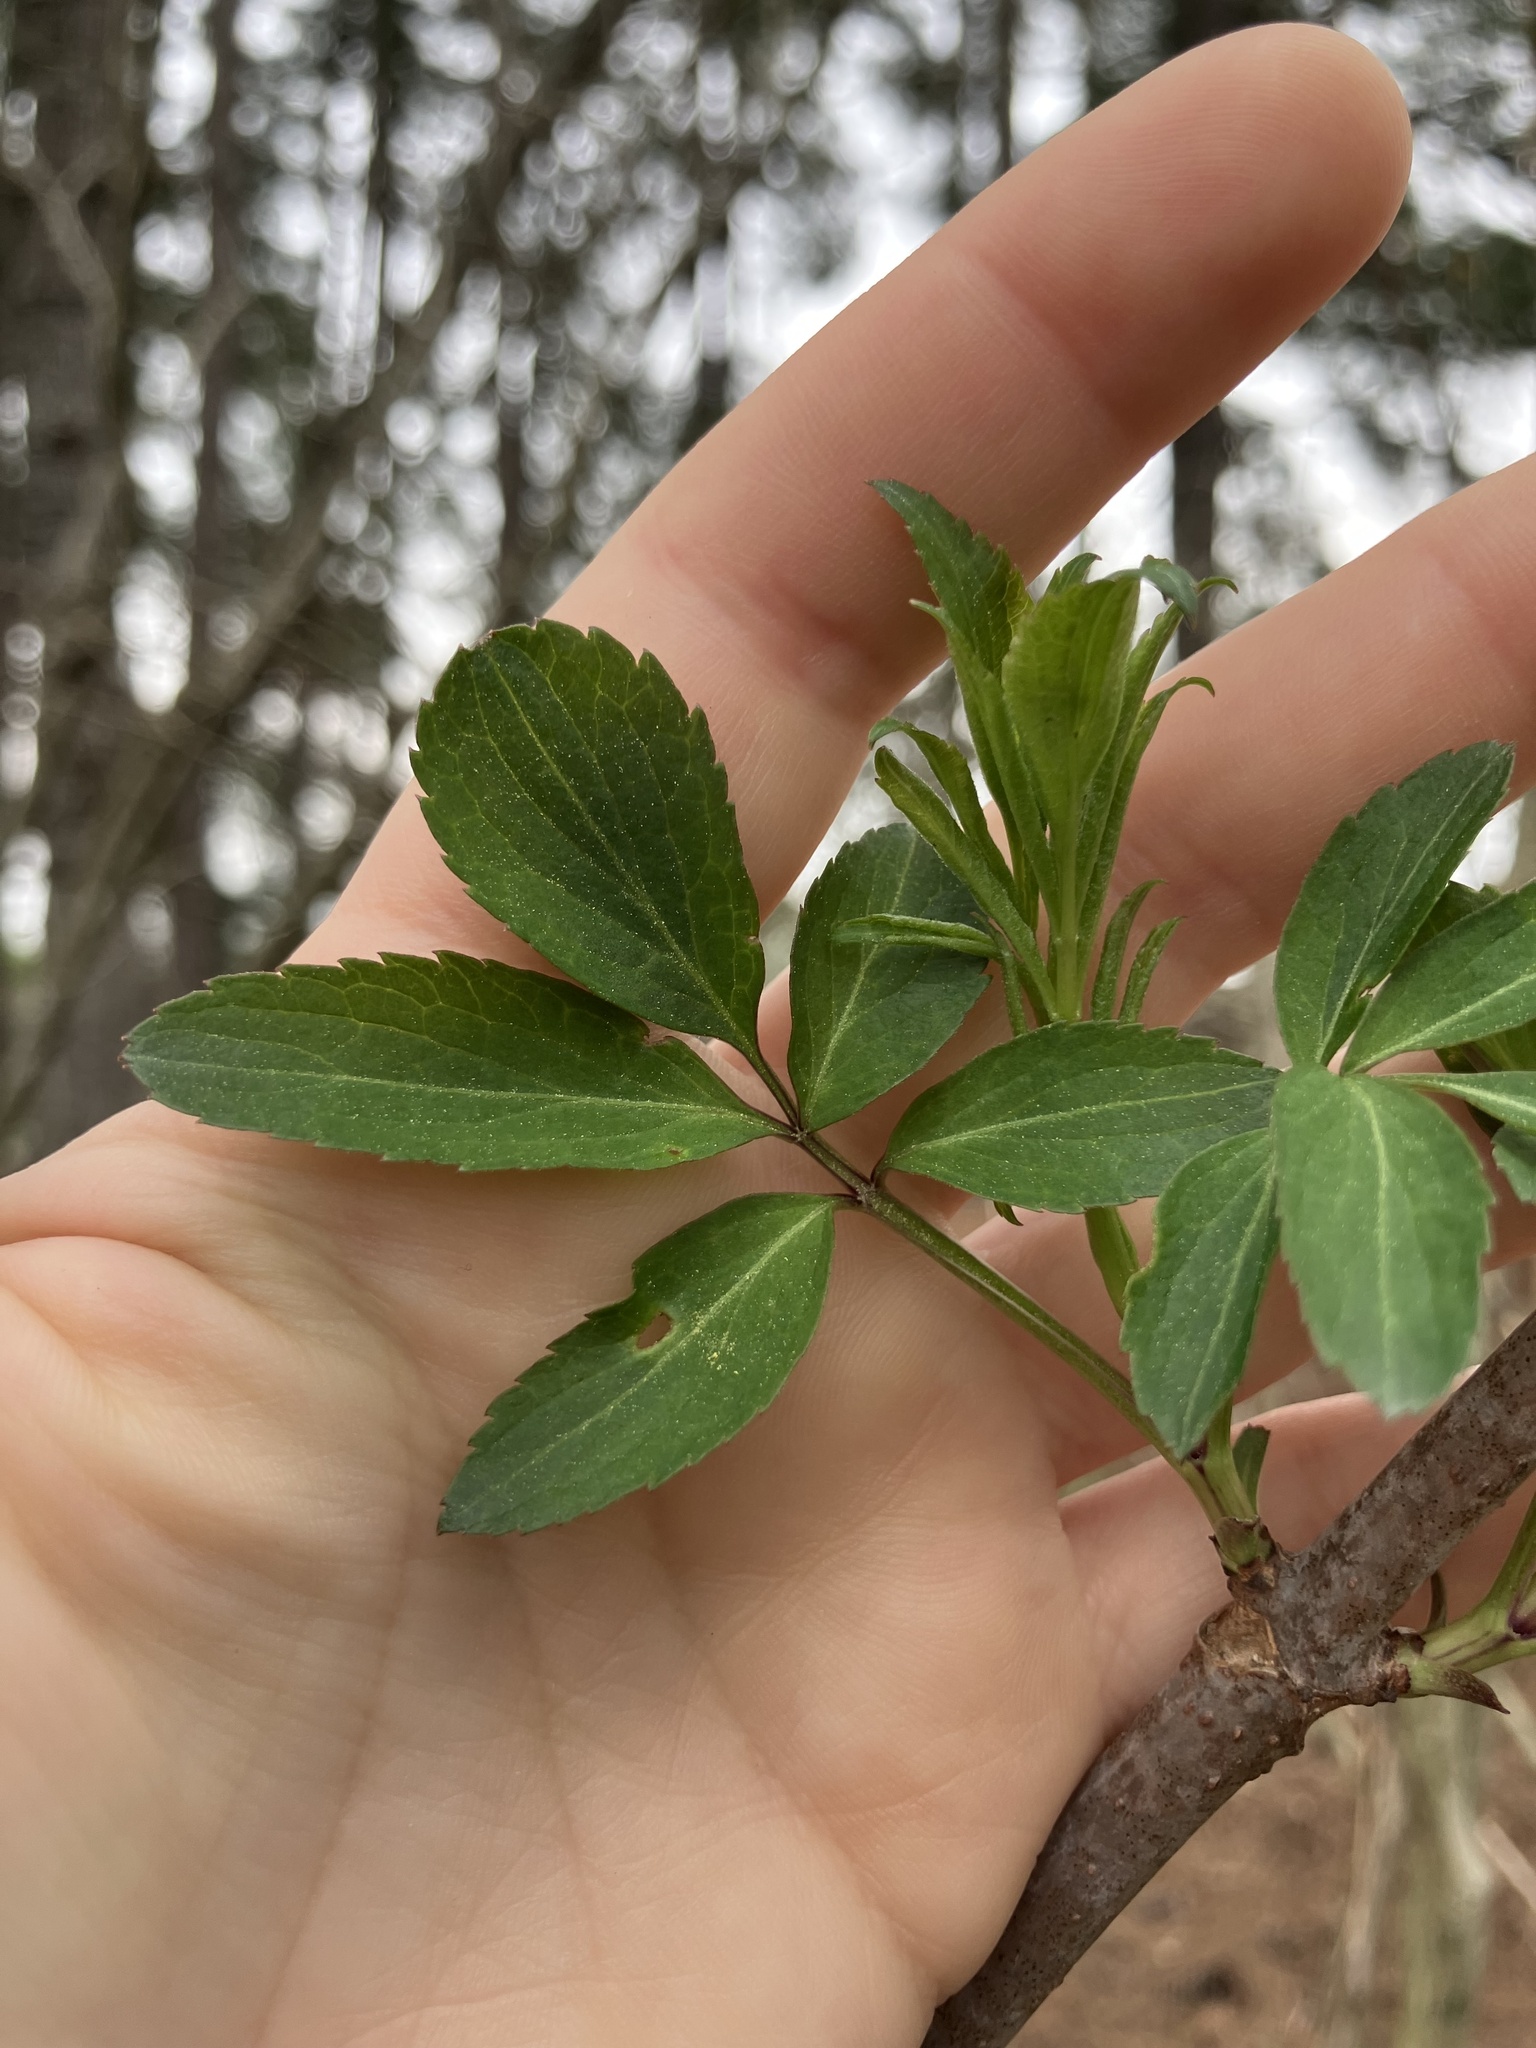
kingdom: Plantae
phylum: Tracheophyta
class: Magnoliopsida
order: Dipsacales
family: Viburnaceae
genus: Sambucus
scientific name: Sambucus canadensis
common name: American elder
